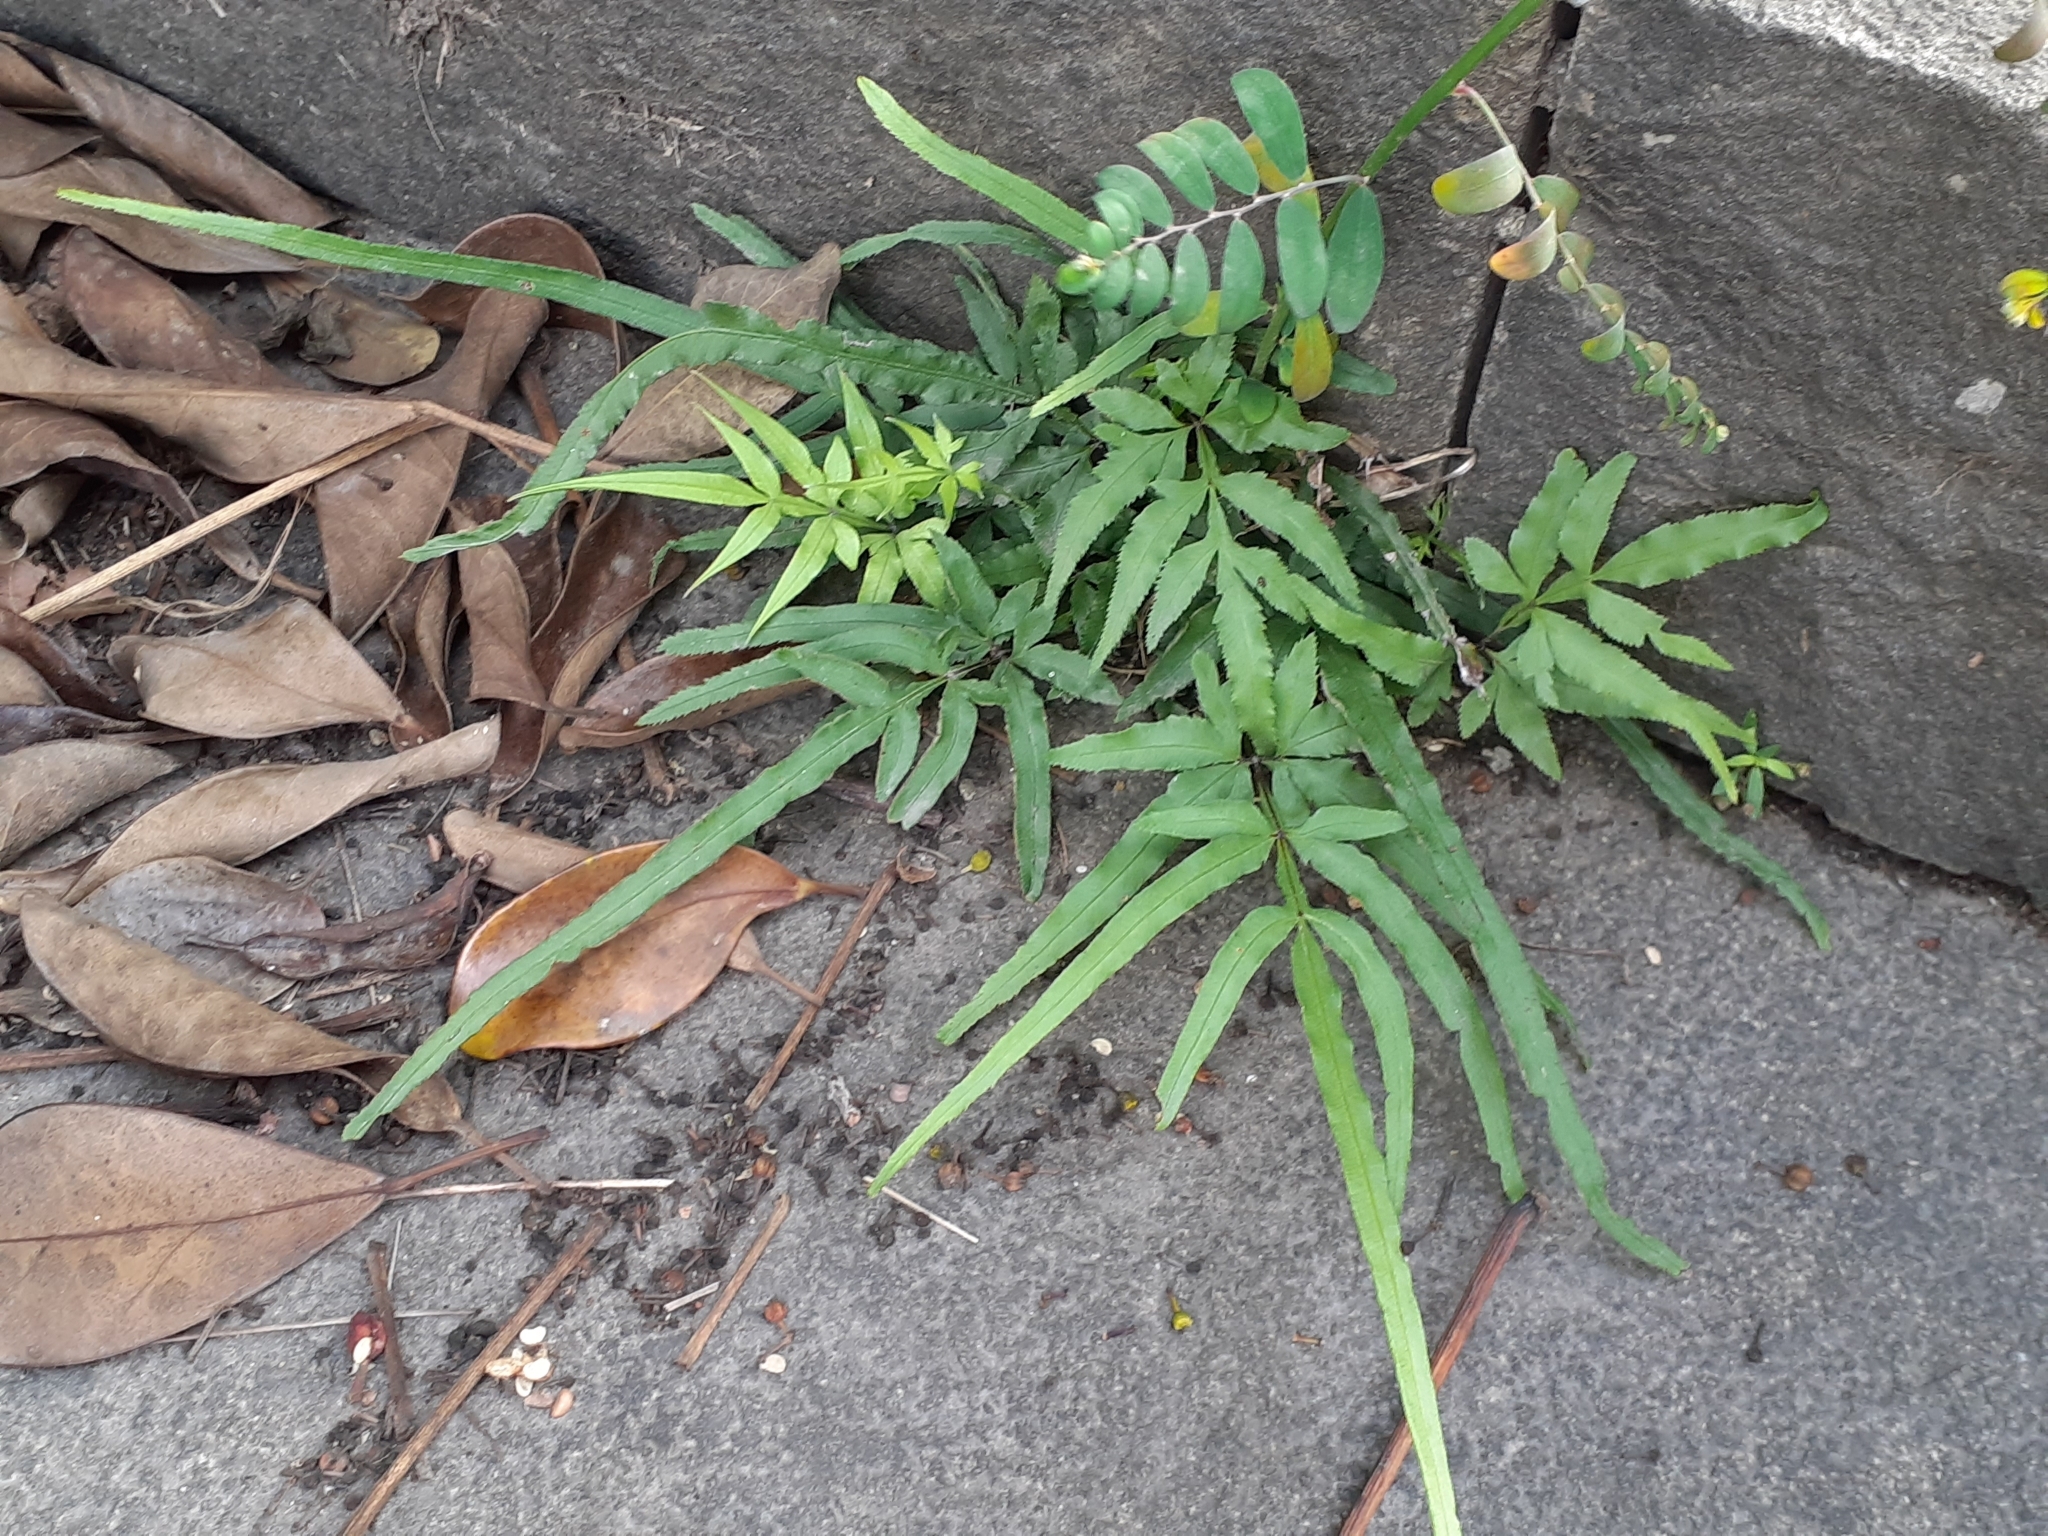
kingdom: Plantae
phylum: Tracheophyta
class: Polypodiopsida
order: Polypodiales
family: Pteridaceae
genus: Pteris
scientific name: Pteris multifida
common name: Spider brake
